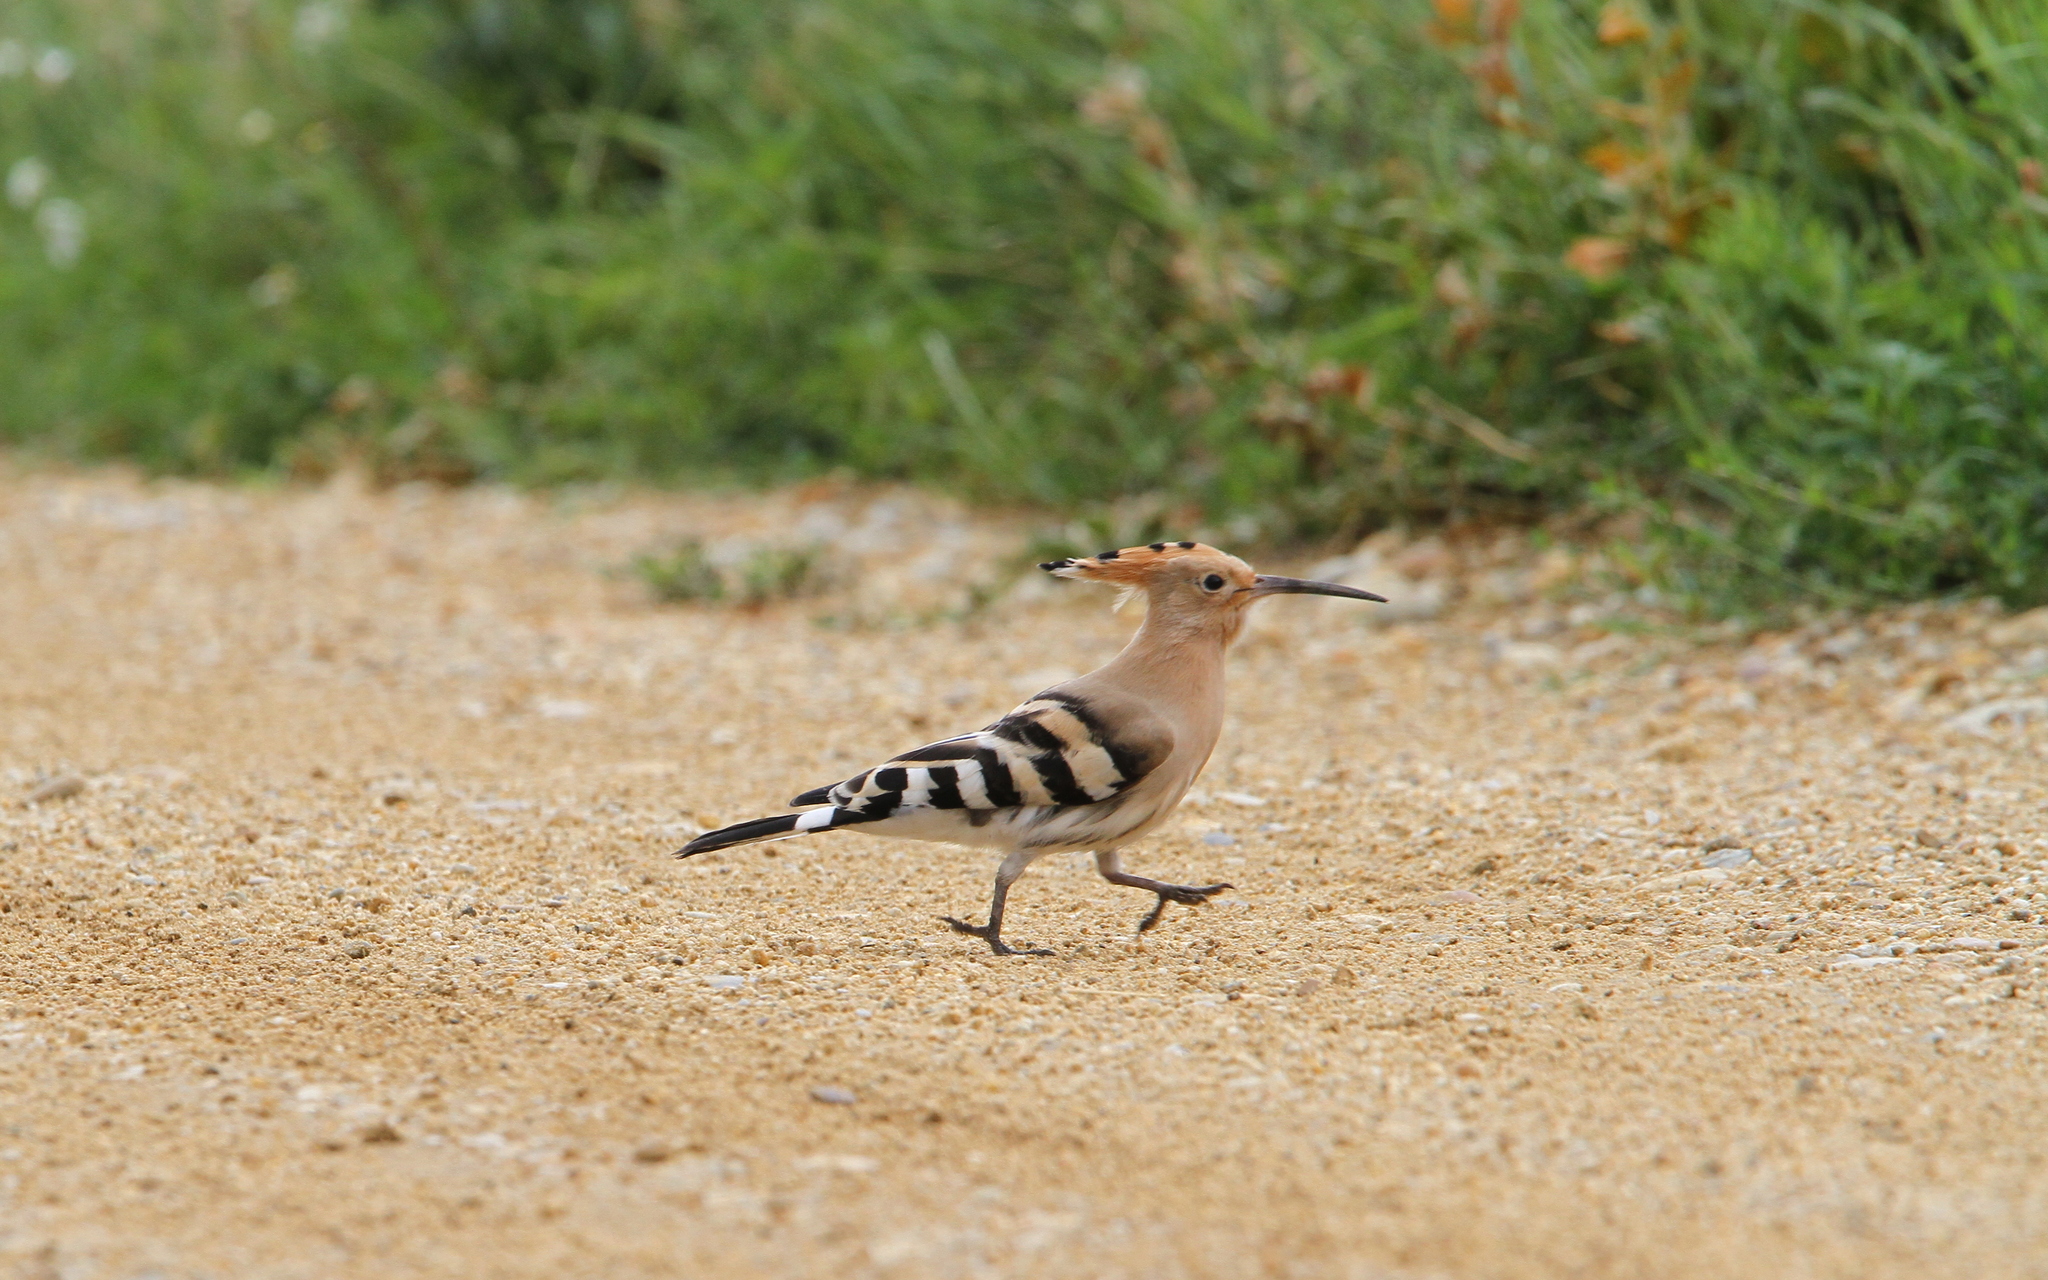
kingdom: Animalia
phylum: Chordata
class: Aves
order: Bucerotiformes
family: Upupidae
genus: Upupa
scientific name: Upupa epops
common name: Eurasian hoopoe
